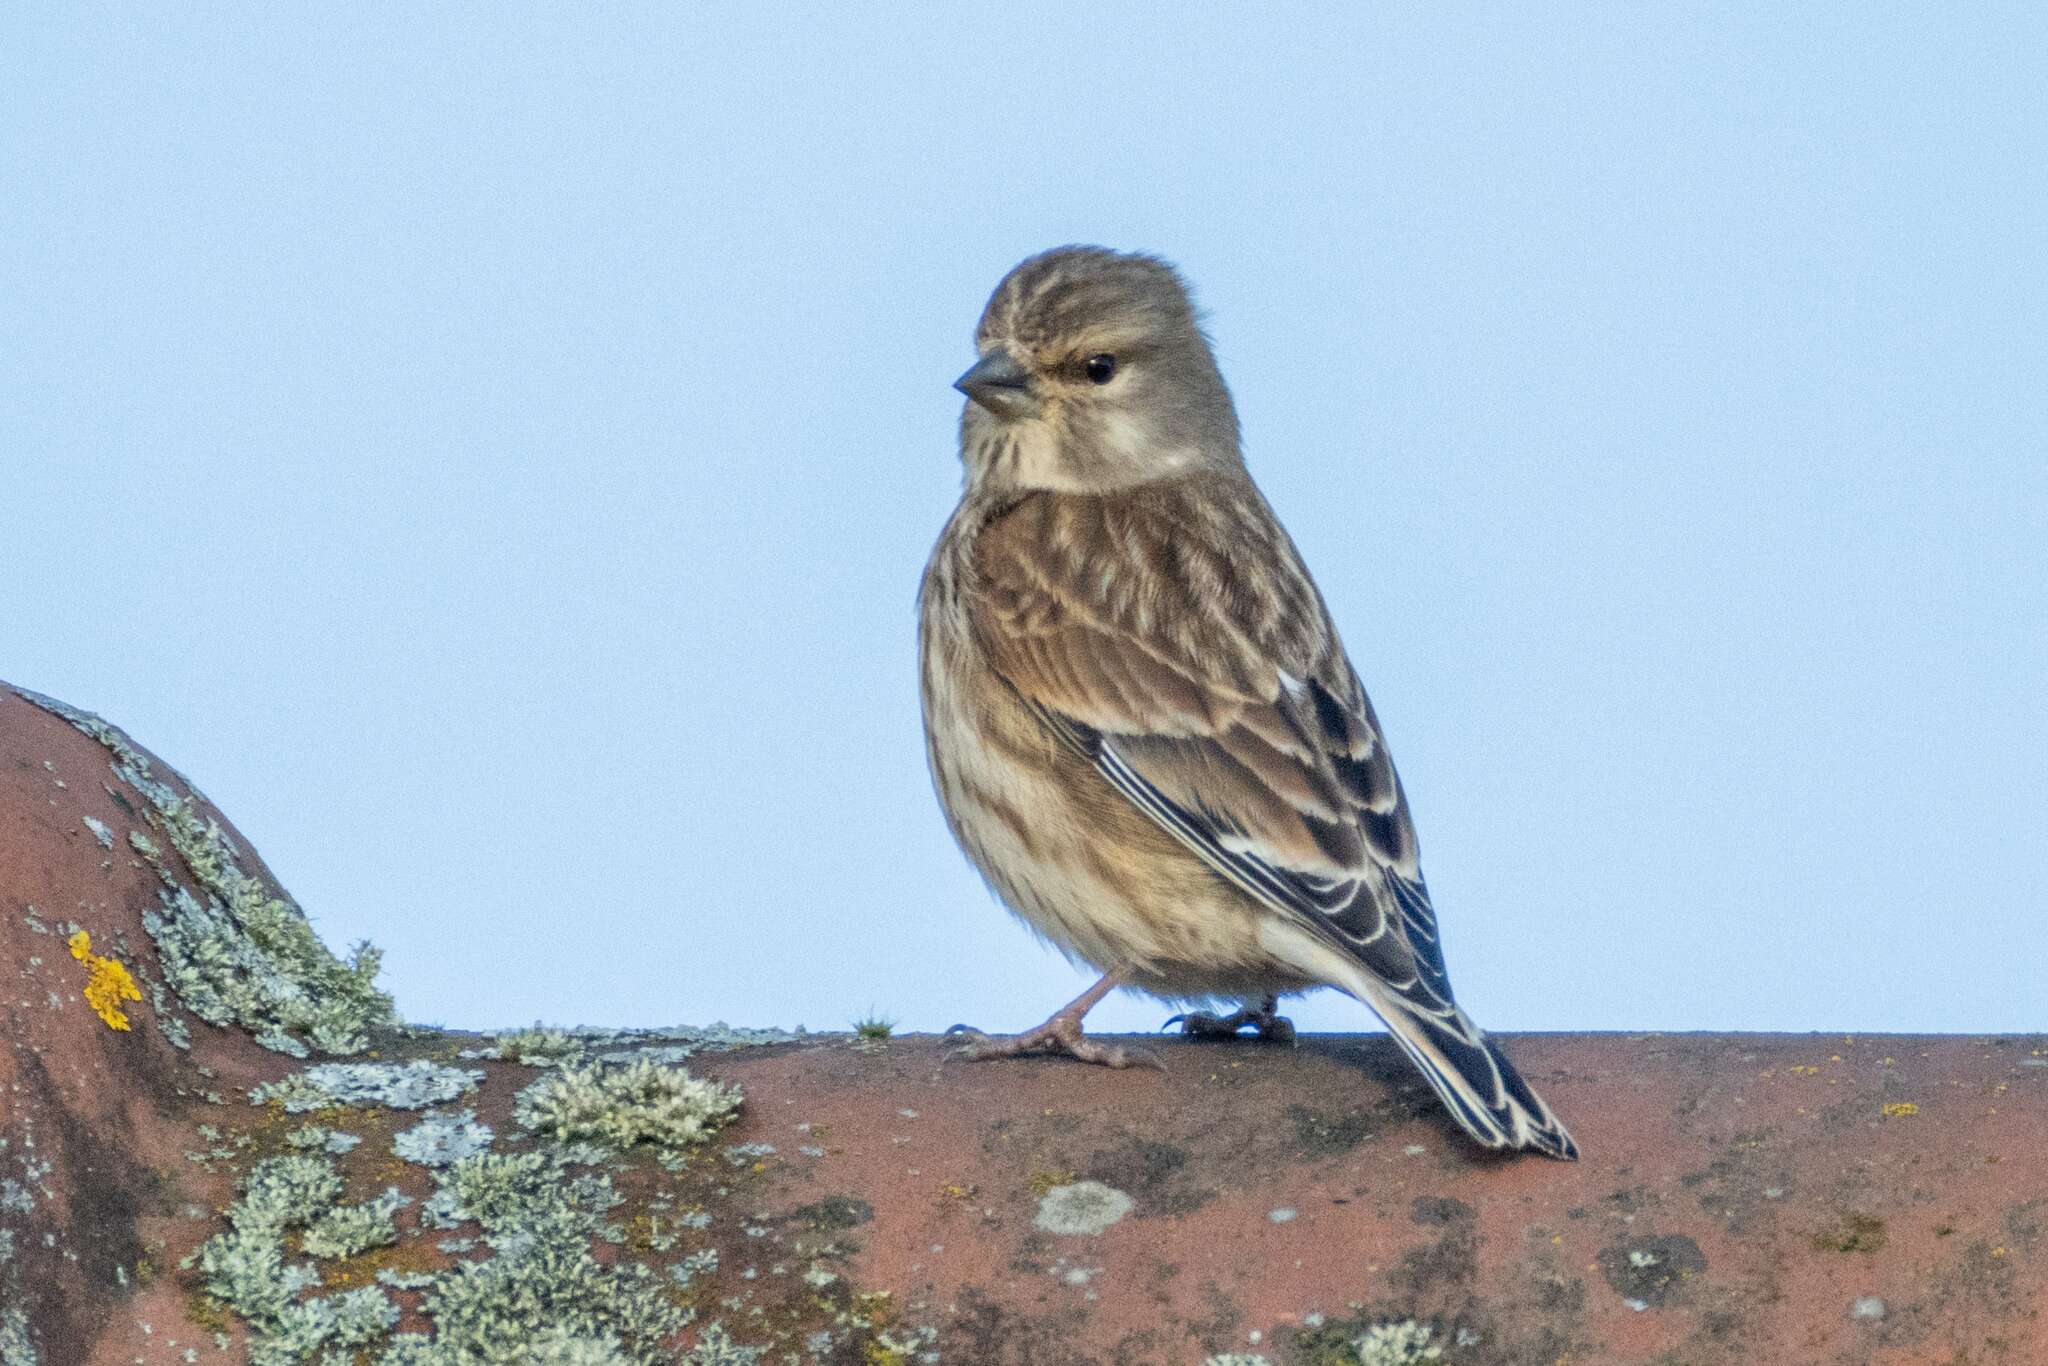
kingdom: Animalia
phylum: Chordata
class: Aves
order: Passeriformes
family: Fringillidae
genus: Linaria
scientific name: Linaria cannabina
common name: Common linnet
